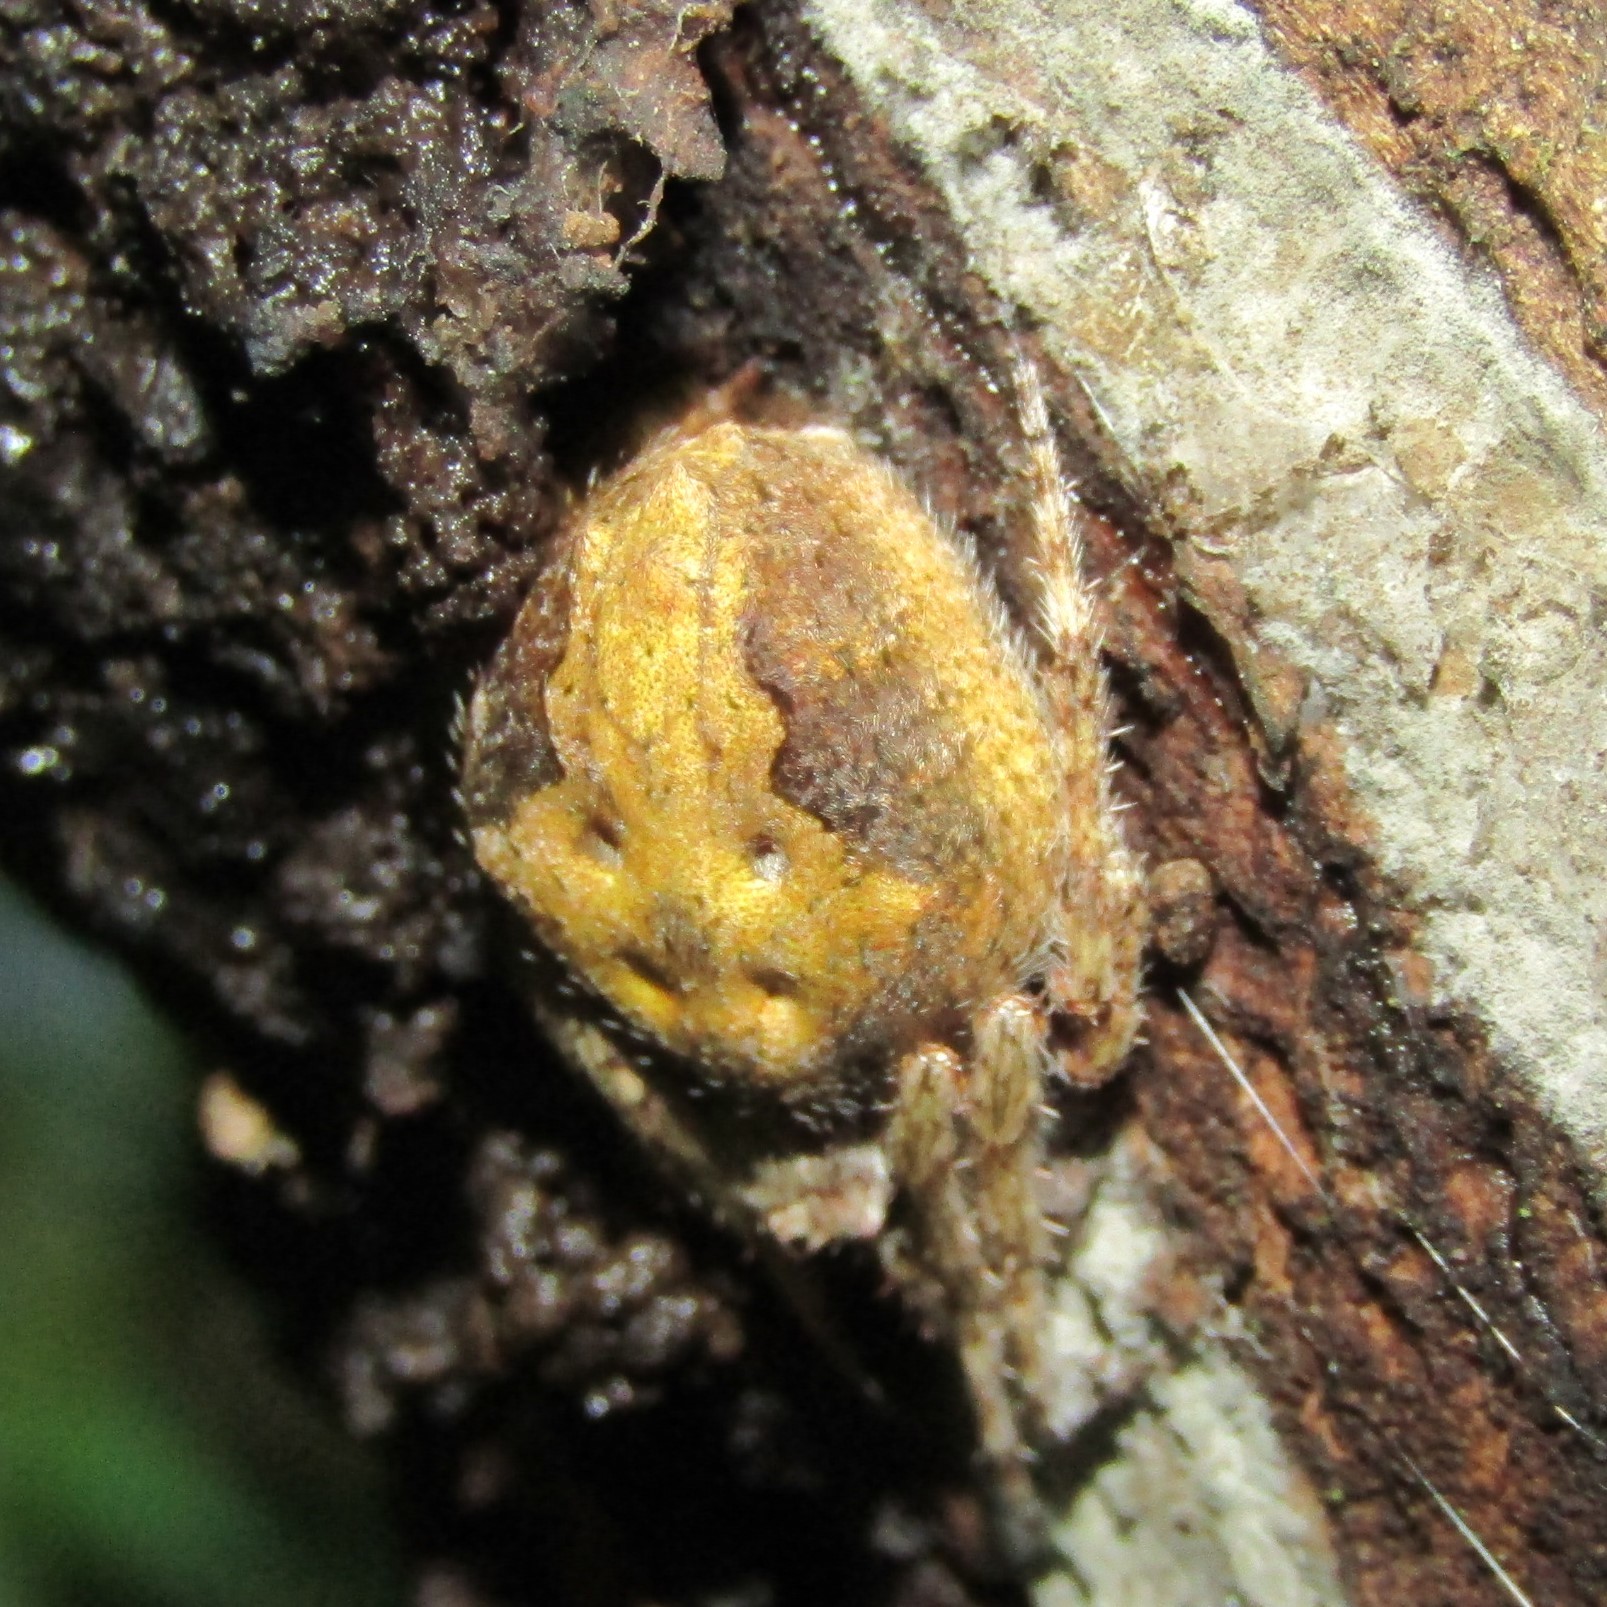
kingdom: Animalia
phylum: Arthropoda
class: Arachnida
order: Araneae
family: Araneidae
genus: Eriophora
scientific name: Eriophora pustulosa
